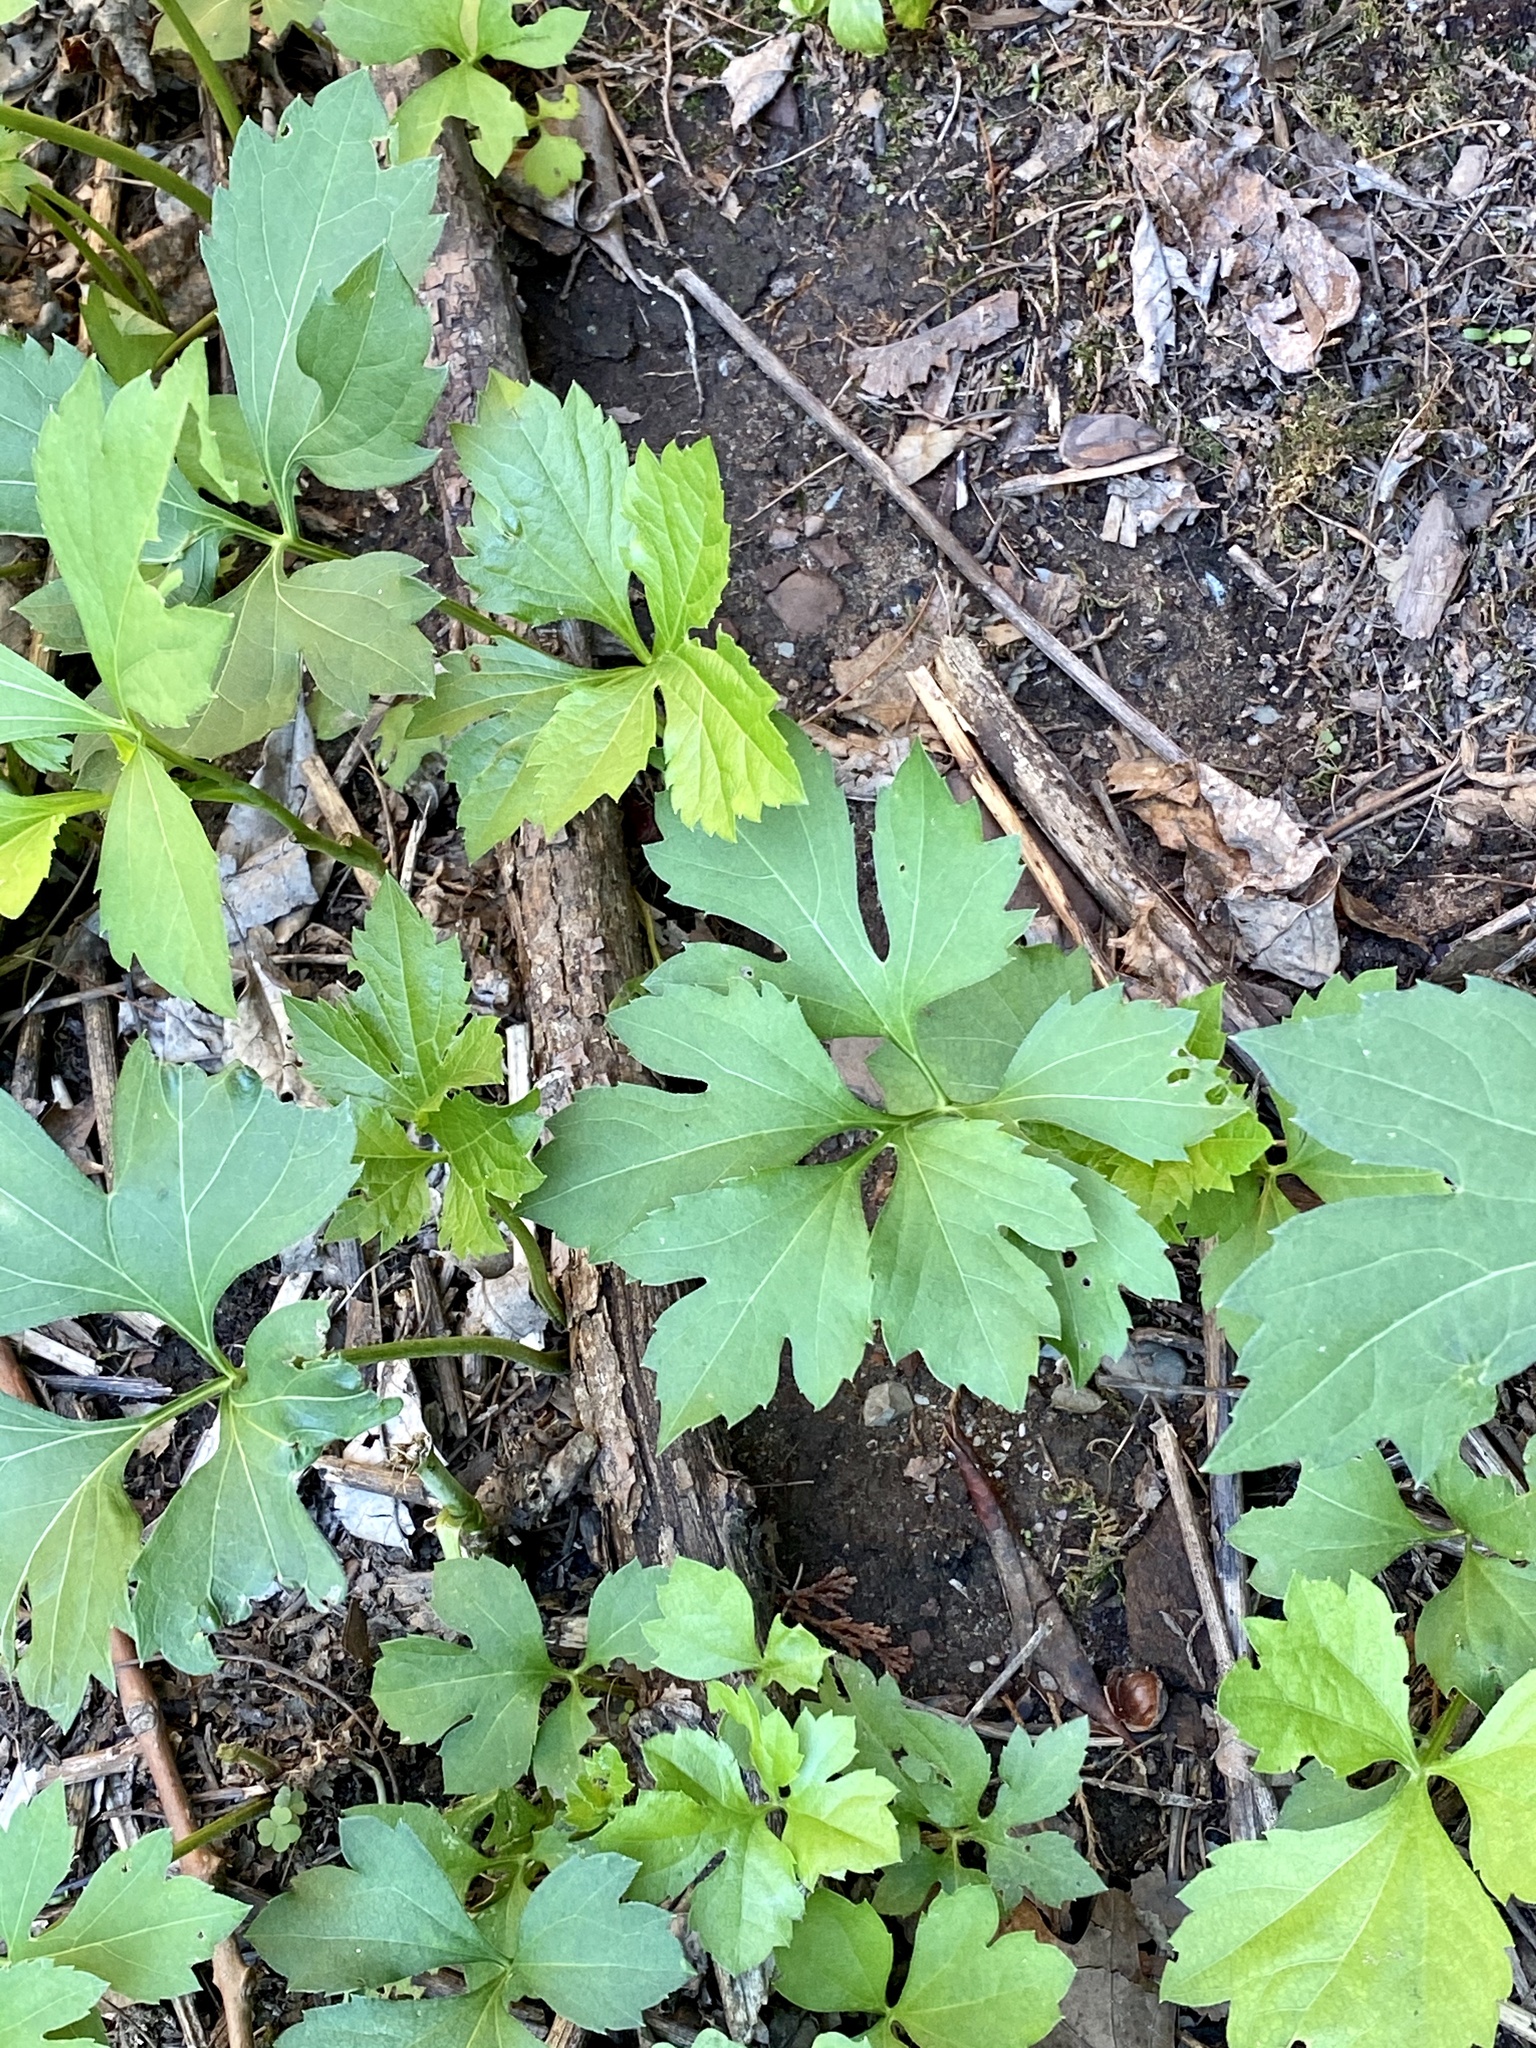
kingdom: Plantae
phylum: Tracheophyta
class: Magnoliopsida
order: Asterales
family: Asteraceae
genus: Rudbeckia
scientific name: Rudbeckia laciniata
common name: Coneflower
